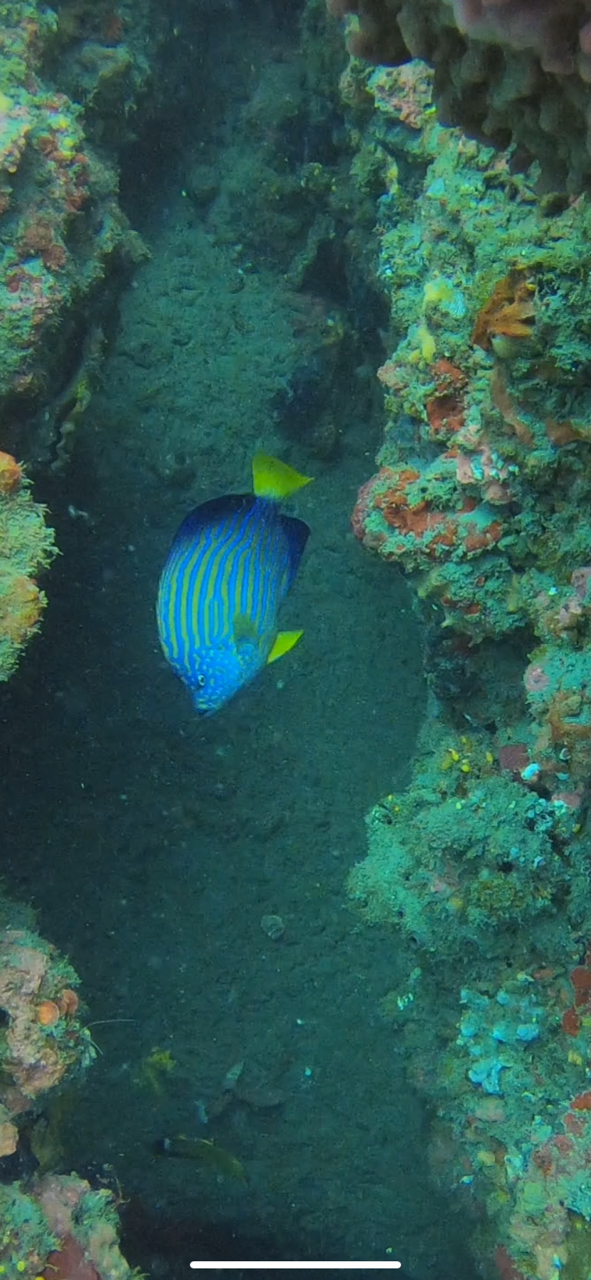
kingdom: Animalia
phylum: Chordata
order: Perciformes
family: Pomacanthidae
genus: Chaetodontoplus
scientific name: Chaetodontoplus septentrionalis
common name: Bluestriped angelfish
